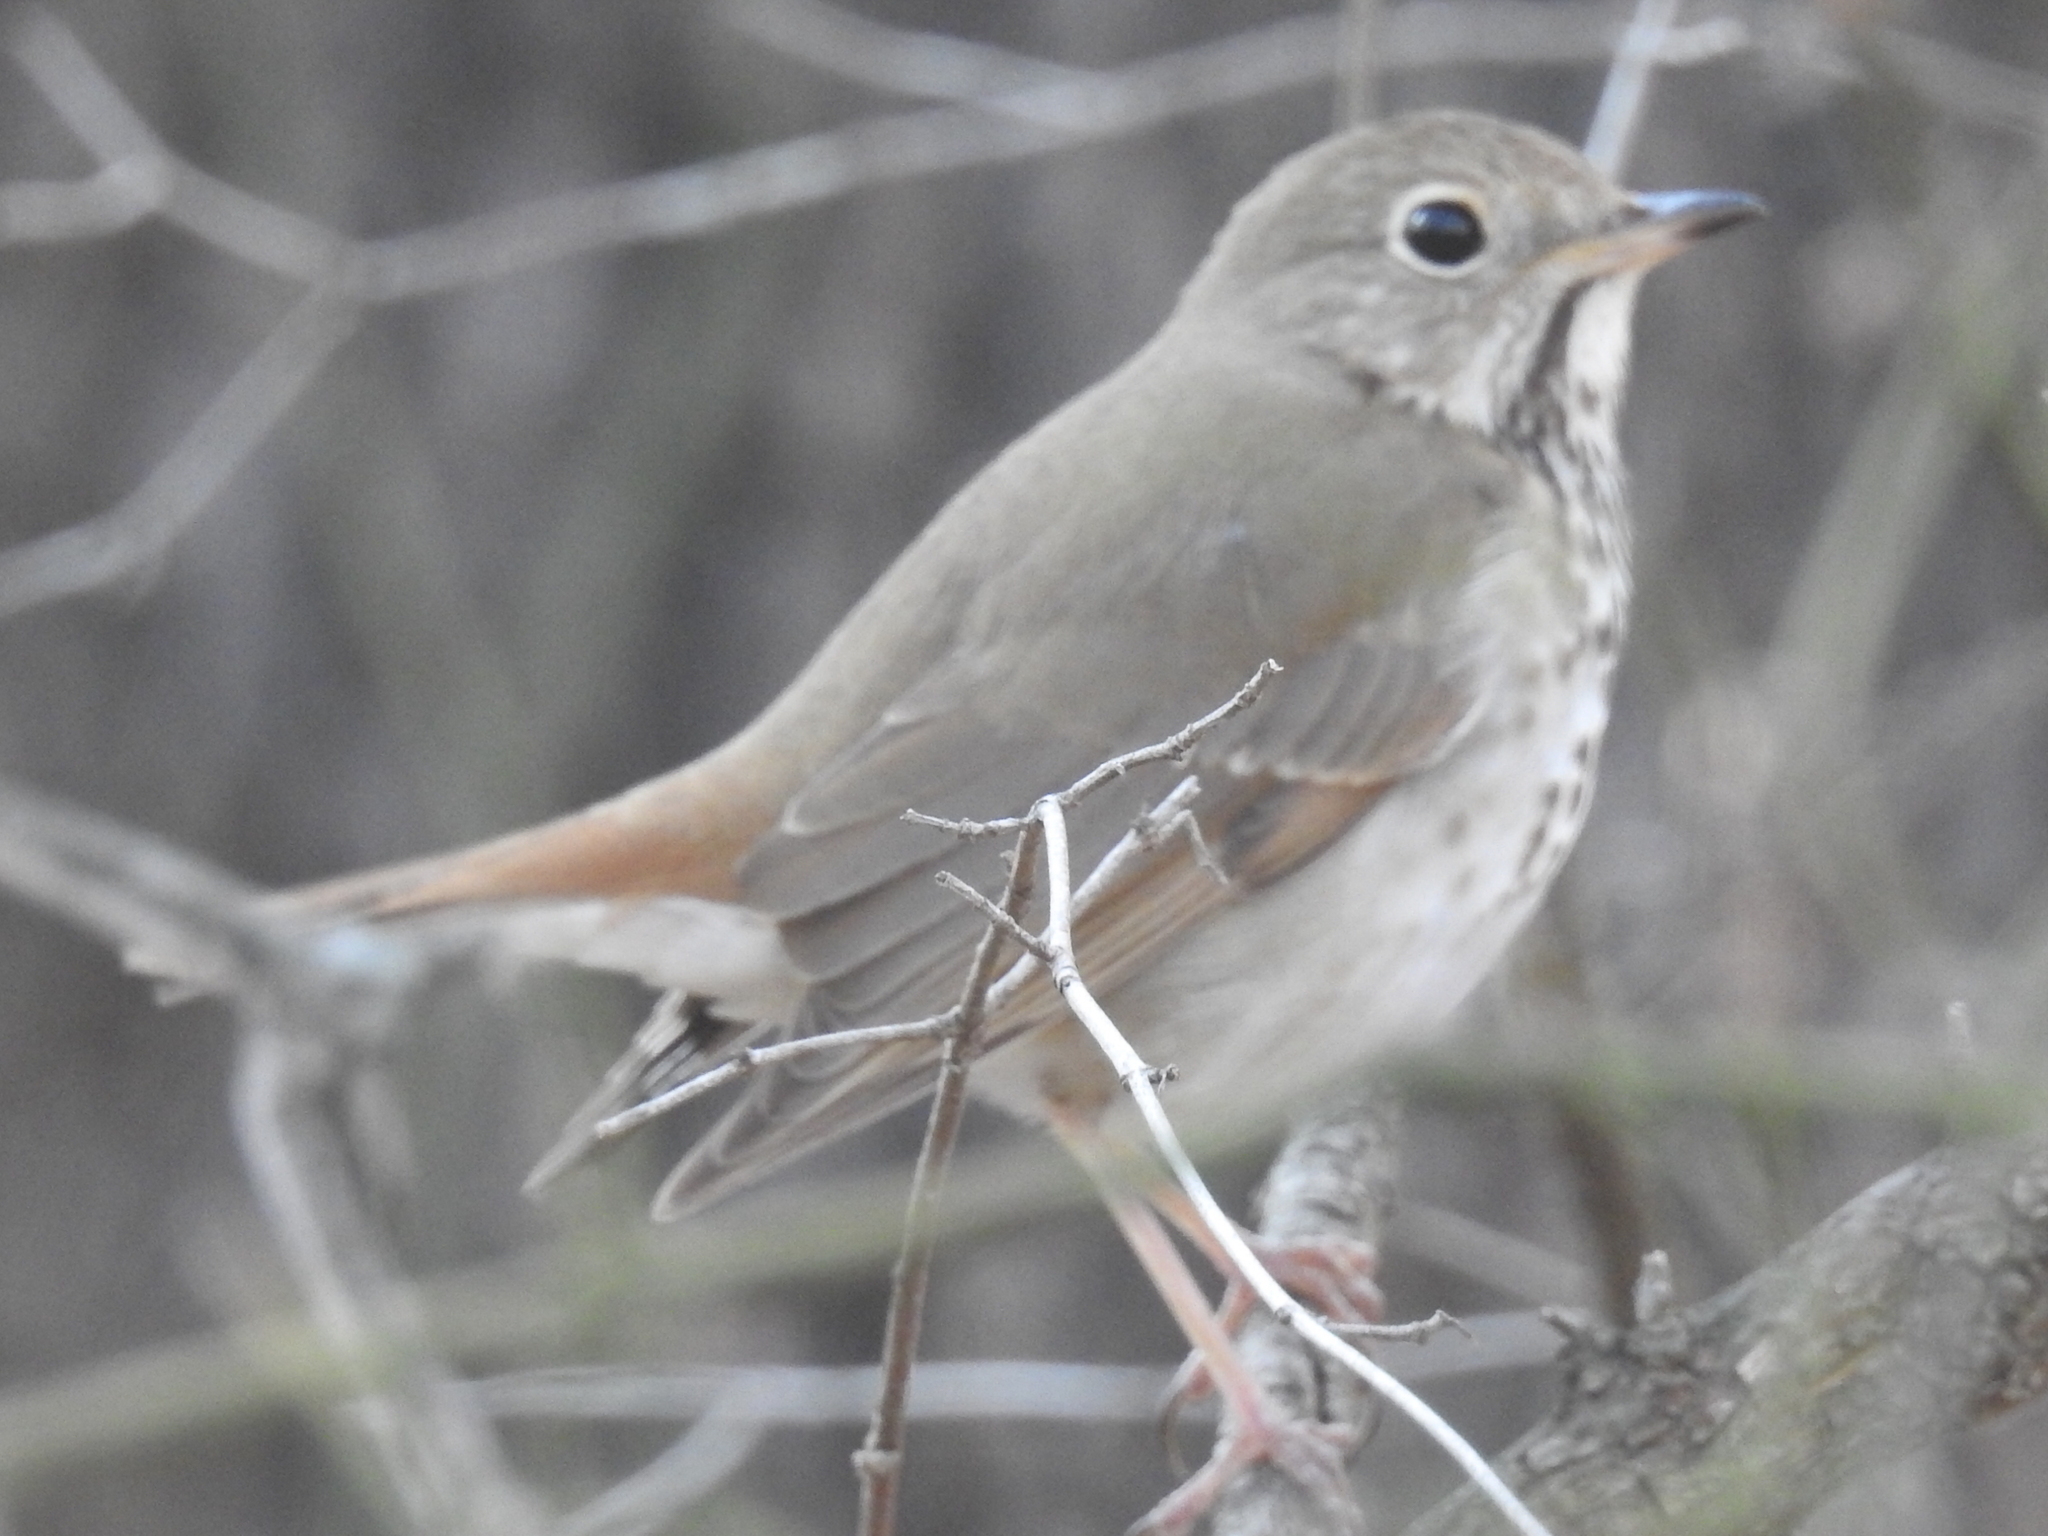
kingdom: Animalia
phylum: Chordata
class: Aves
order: Passeriformes
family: Turdidae
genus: Catharus
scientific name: Catharus guttatus
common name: Hermit thrush
